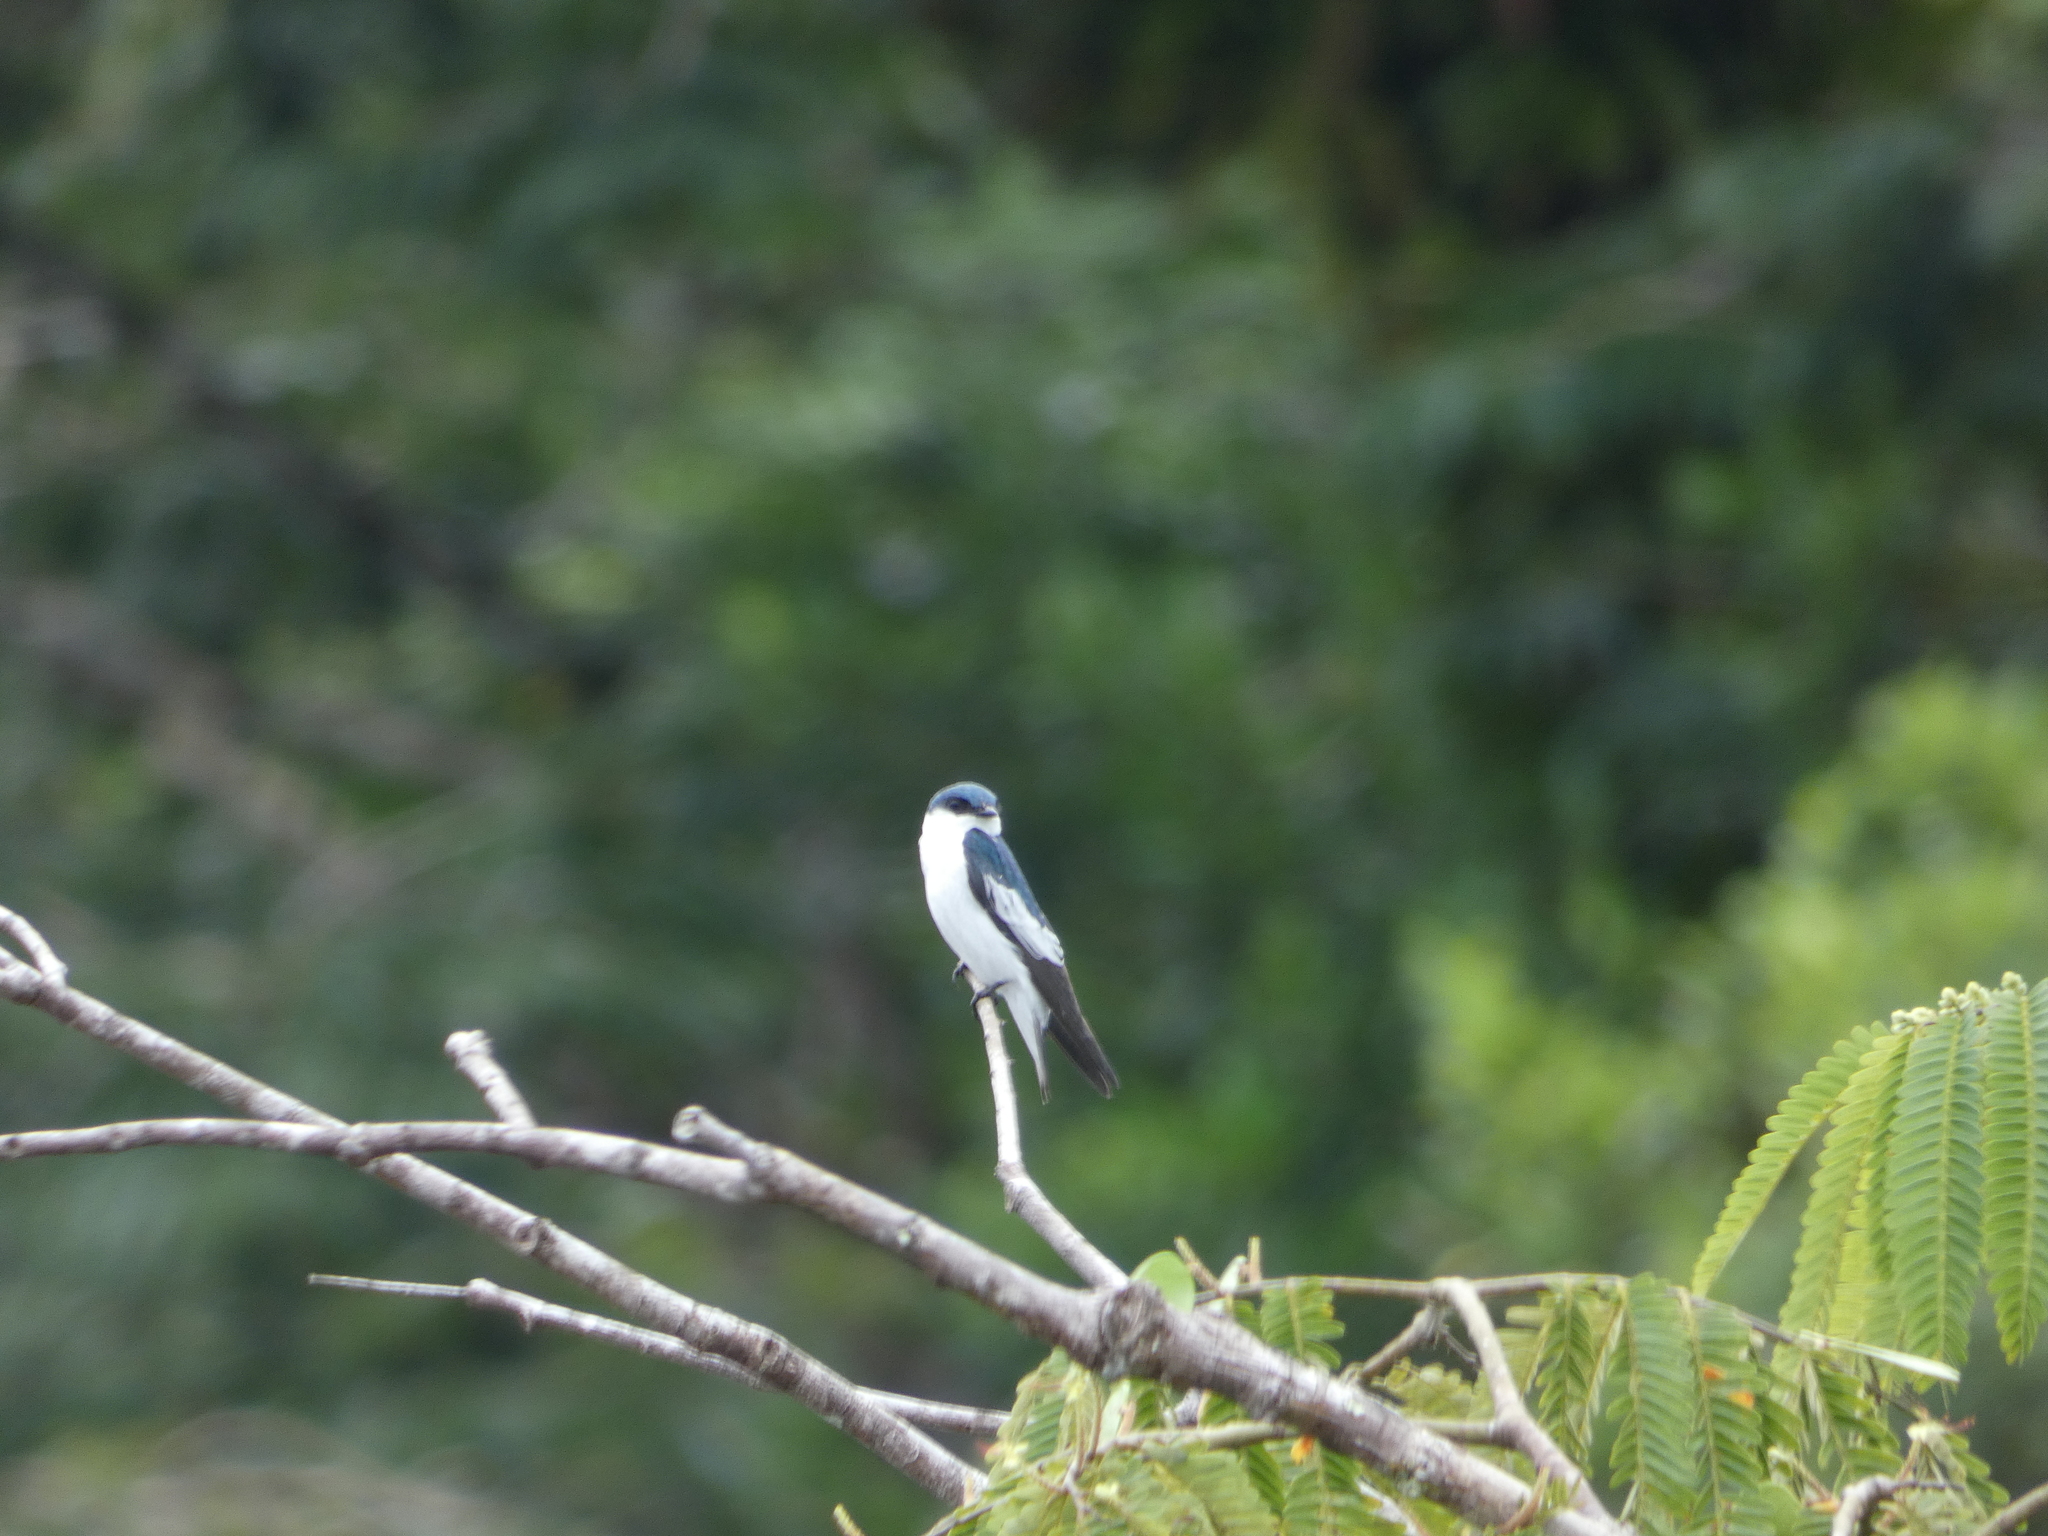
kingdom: Animalia
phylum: Chordata
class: Aves
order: Passeriformes
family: Hirundinidae
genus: Tachycineta
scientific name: Tachycineta albiventer
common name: White-winged swallow
